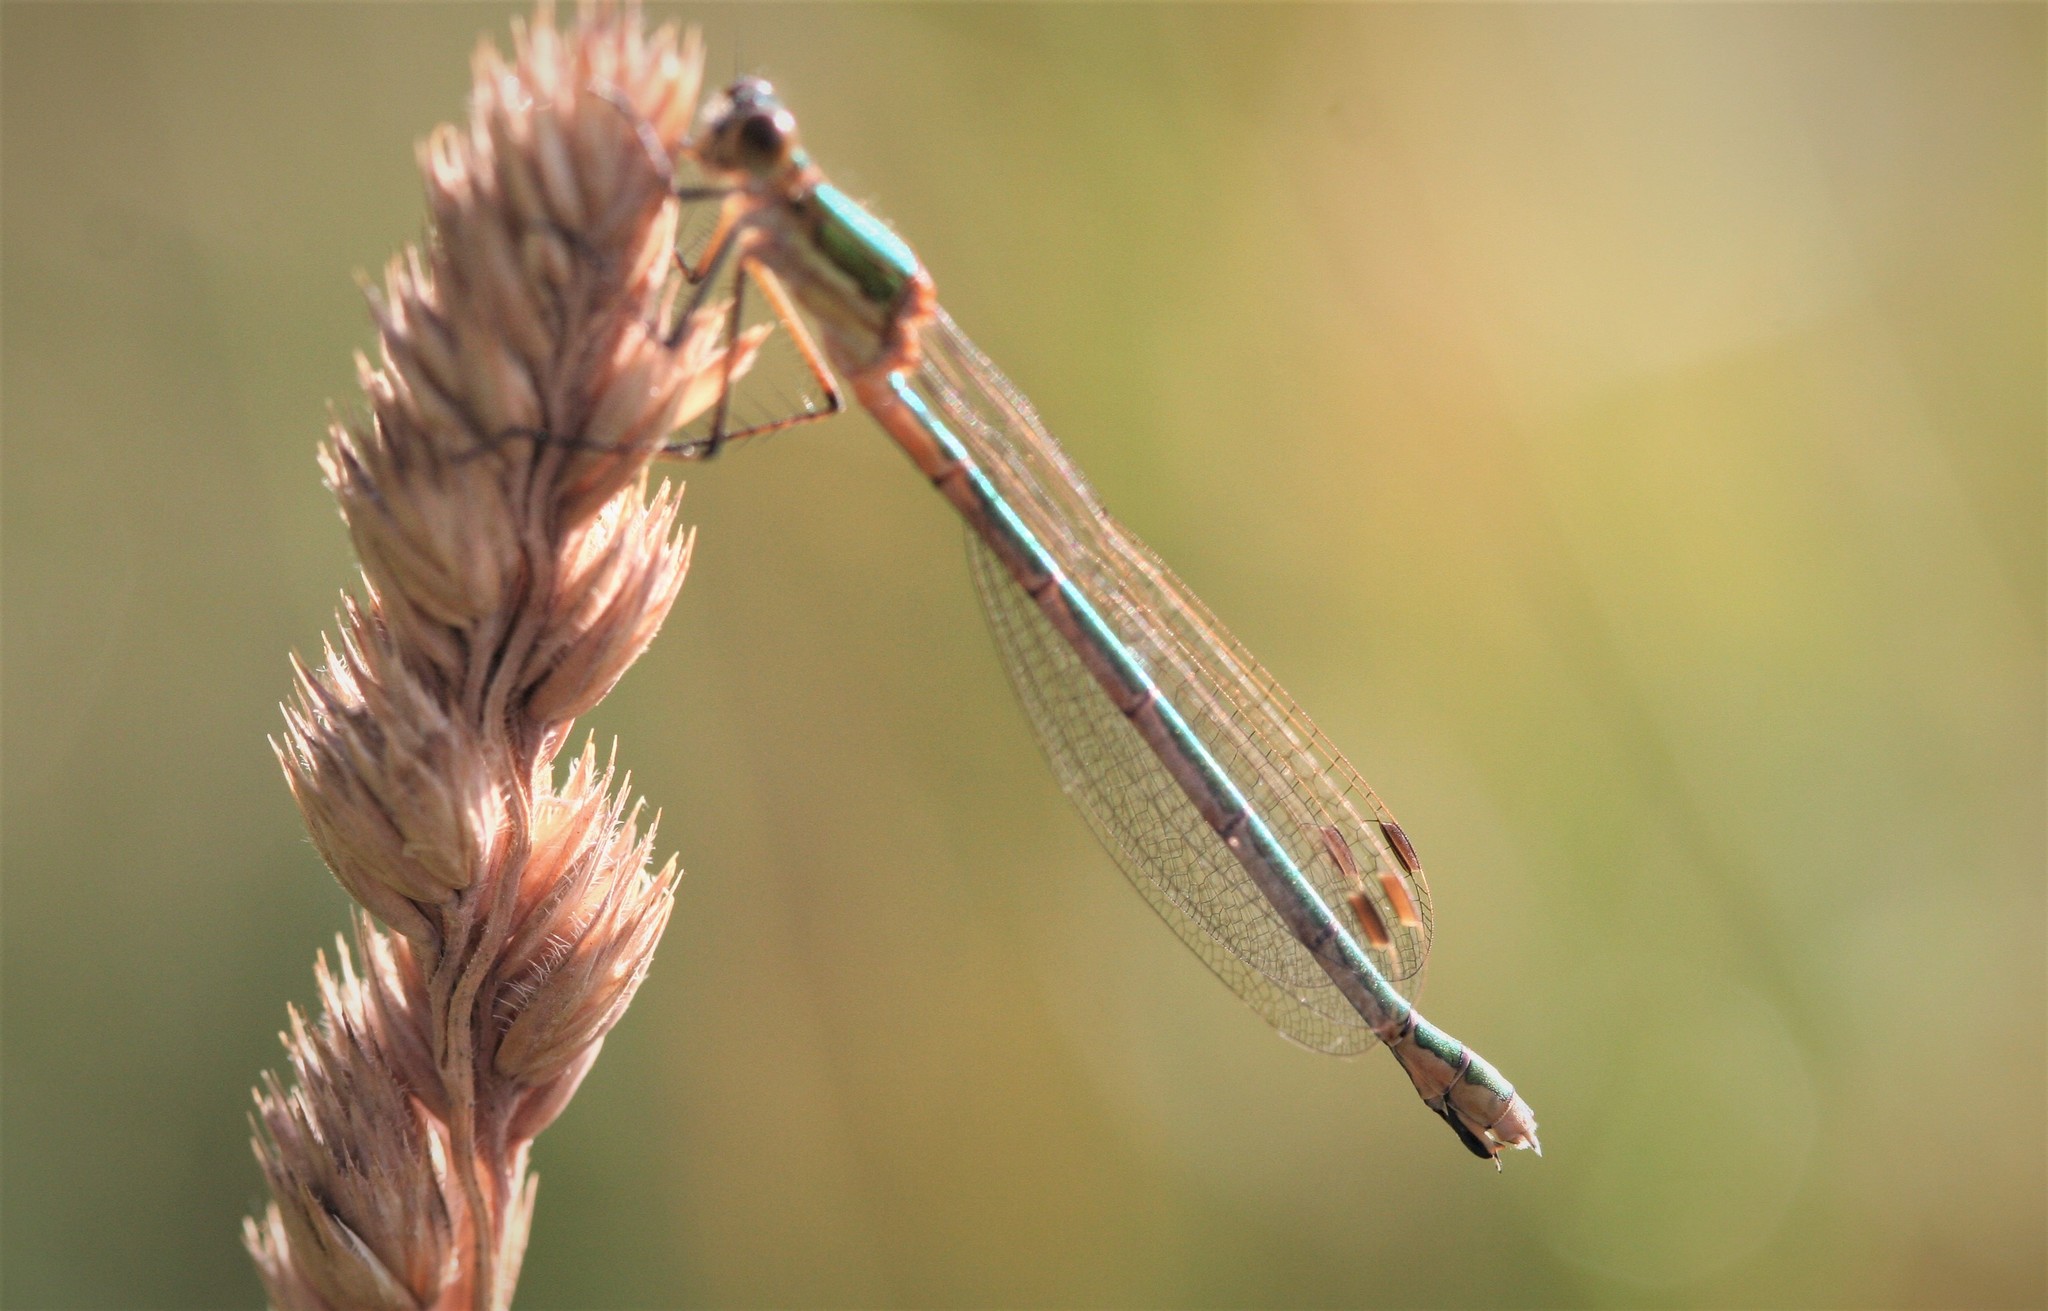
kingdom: Animalia
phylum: Arthropoda
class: Insecta
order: Odonata
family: Lestidae
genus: Lestes
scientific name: Lestes sponsa
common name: Common spreadwing
